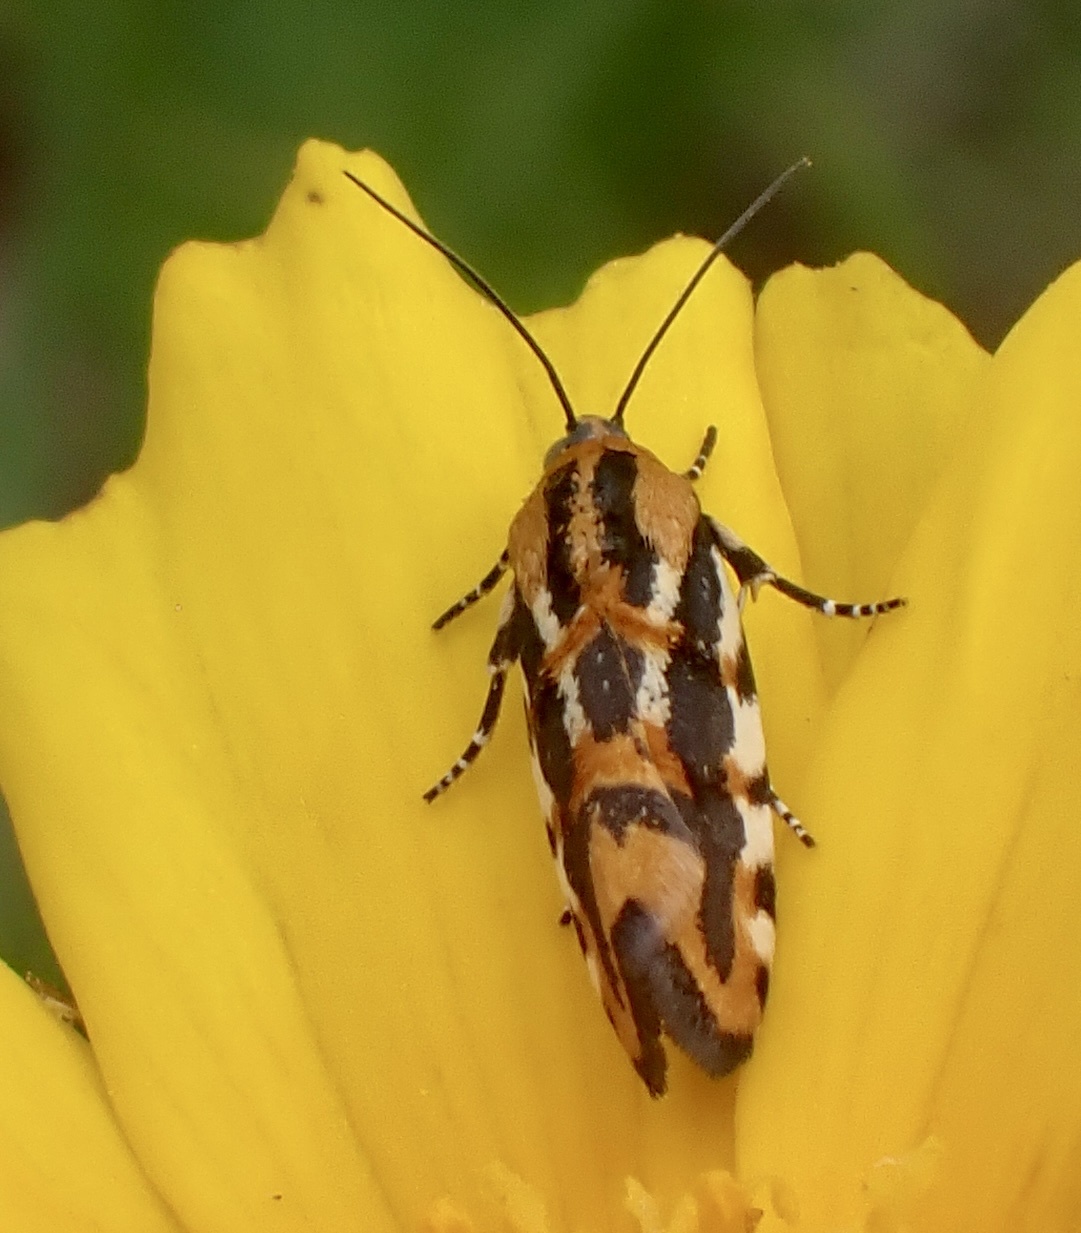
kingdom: Animalia
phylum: Arthropoda
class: Insecta
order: Lepidoptera
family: Noctuidae
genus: Acontia
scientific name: Acontia leo
